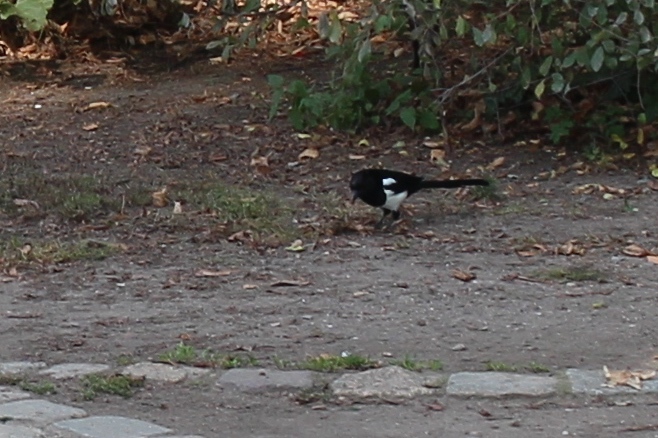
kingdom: Animalia
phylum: Chordata
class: Aves
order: Passeriformes
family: Corvidae
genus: Pica
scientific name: Pica pica
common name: Eurasian magpie
